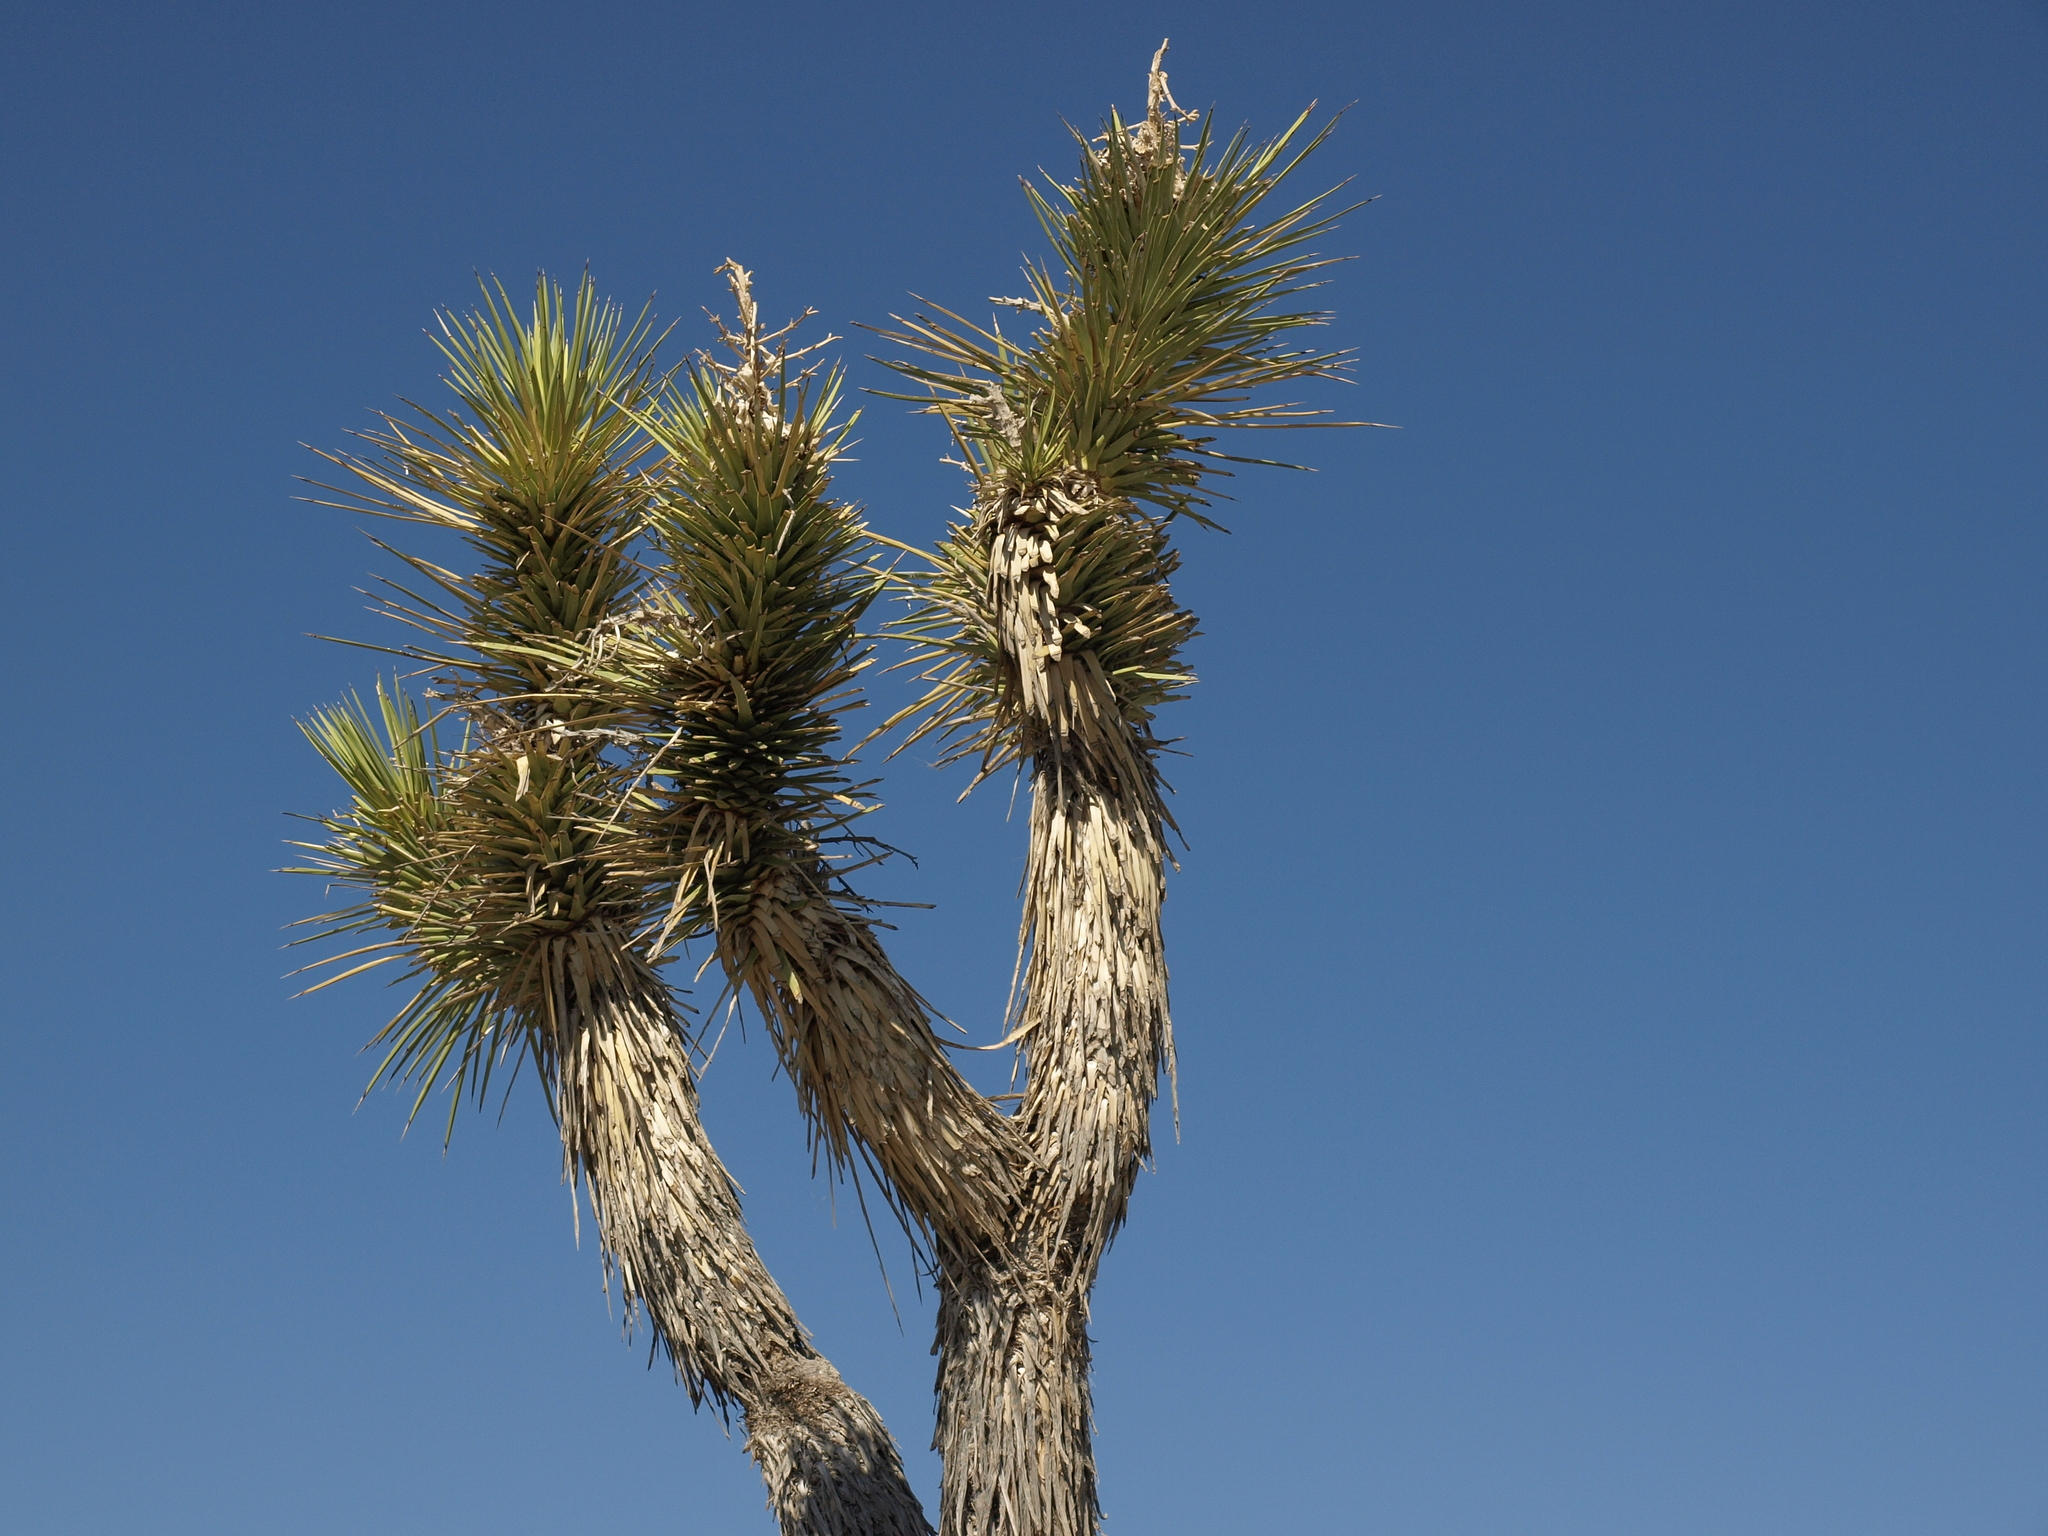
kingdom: Plantae
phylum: Tracheophyta
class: Liliopsida
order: Asparagales
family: Asparagaceae
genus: Yucca
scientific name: Yucca brevifolia
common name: Joshua tree
